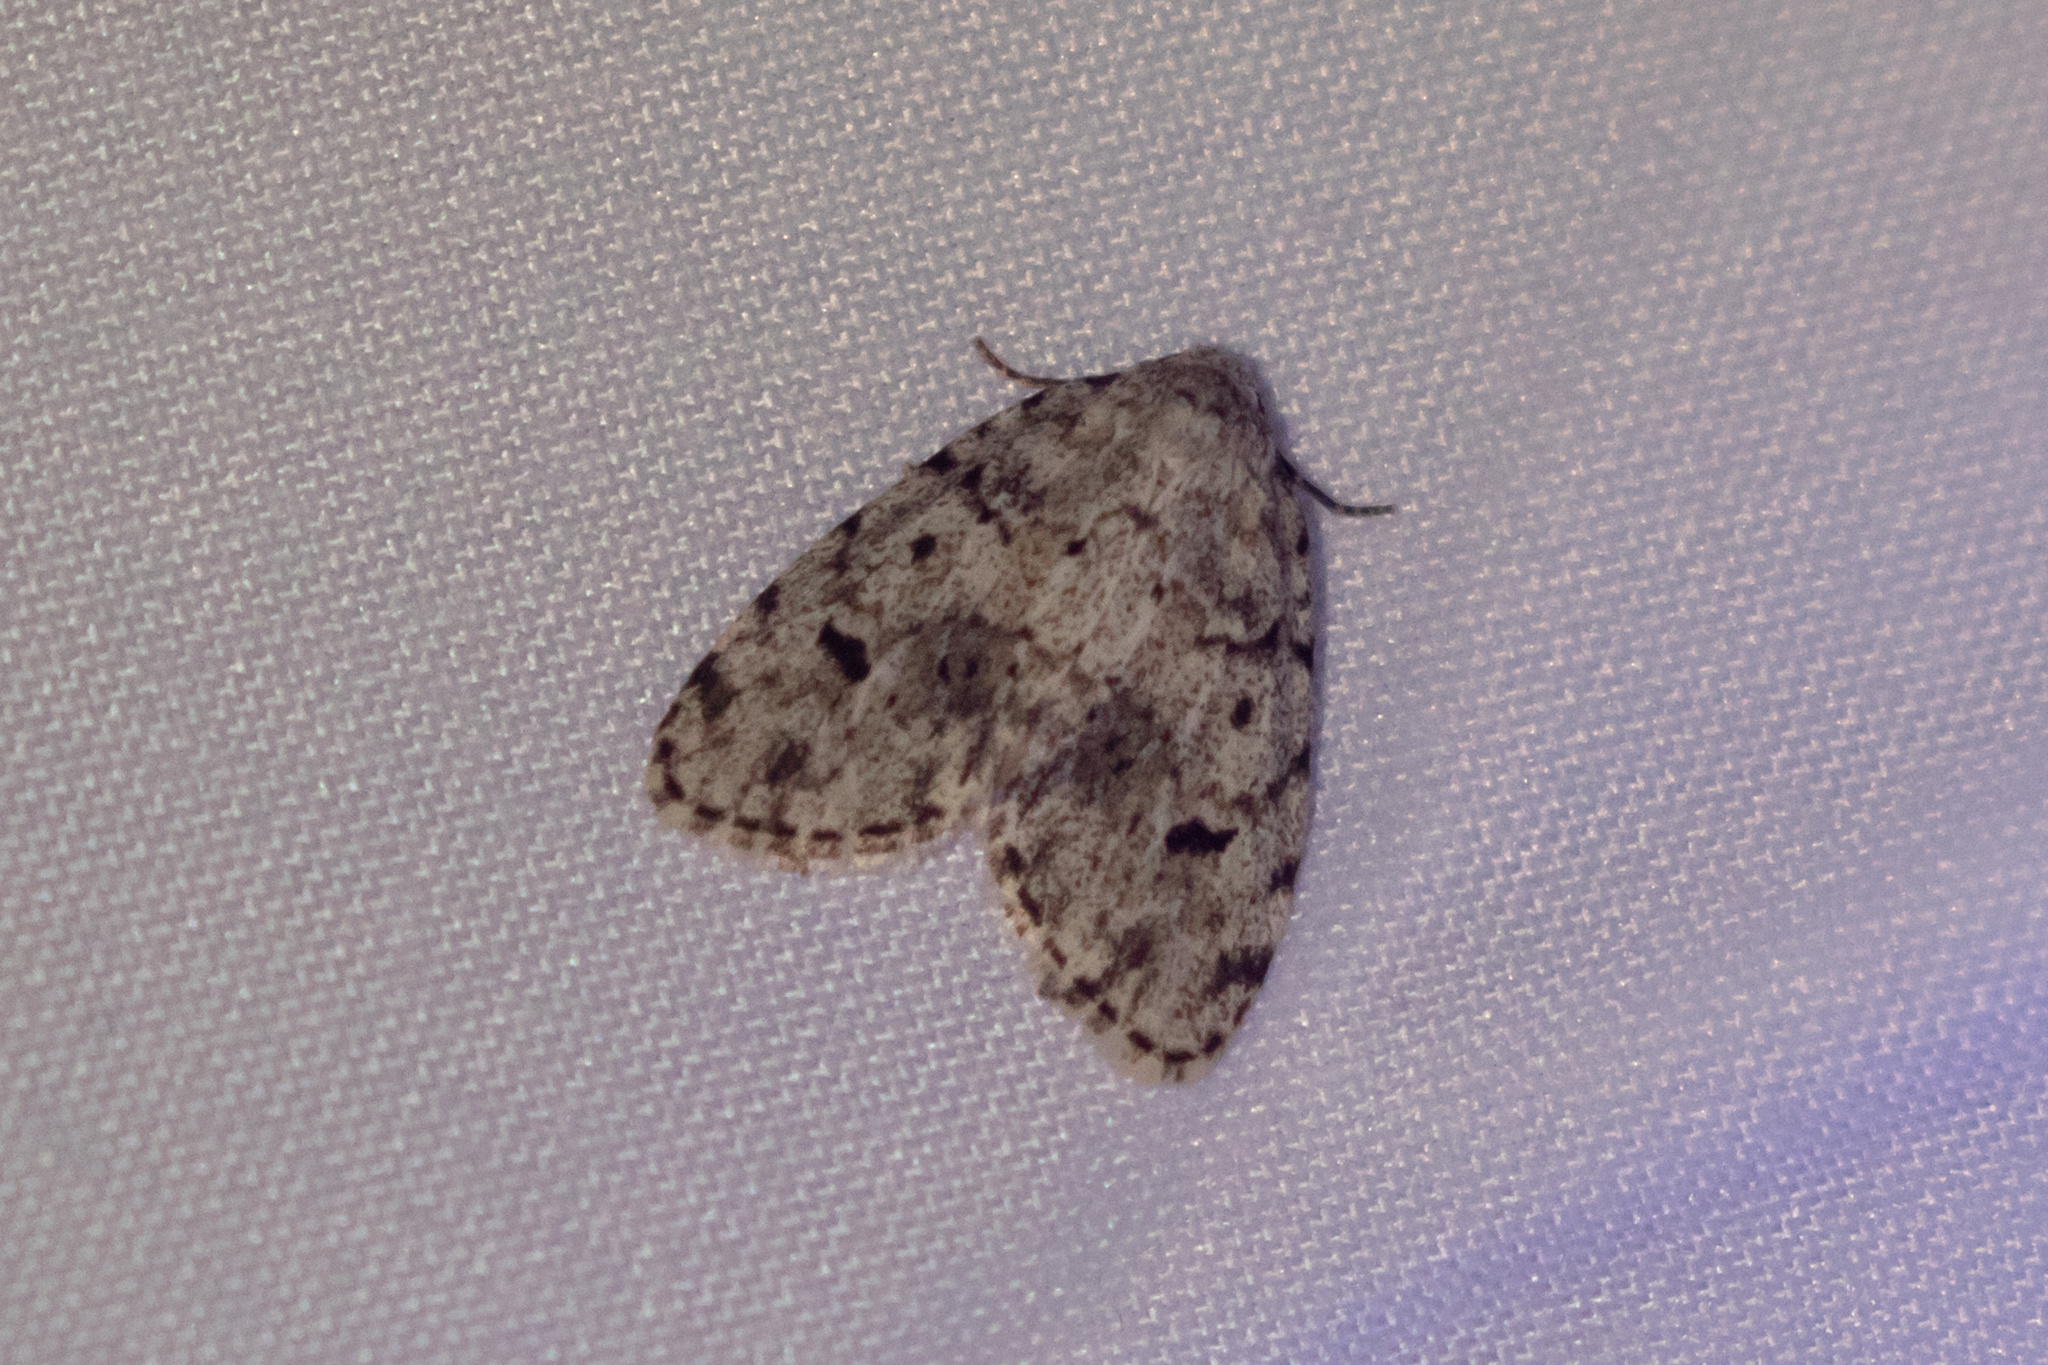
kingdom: Animalia
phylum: Arthropoda
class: Insecta
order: Lepidoptera
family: Erebidae
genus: Clemensia
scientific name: Clemensia albata
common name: Little white lichen moth
